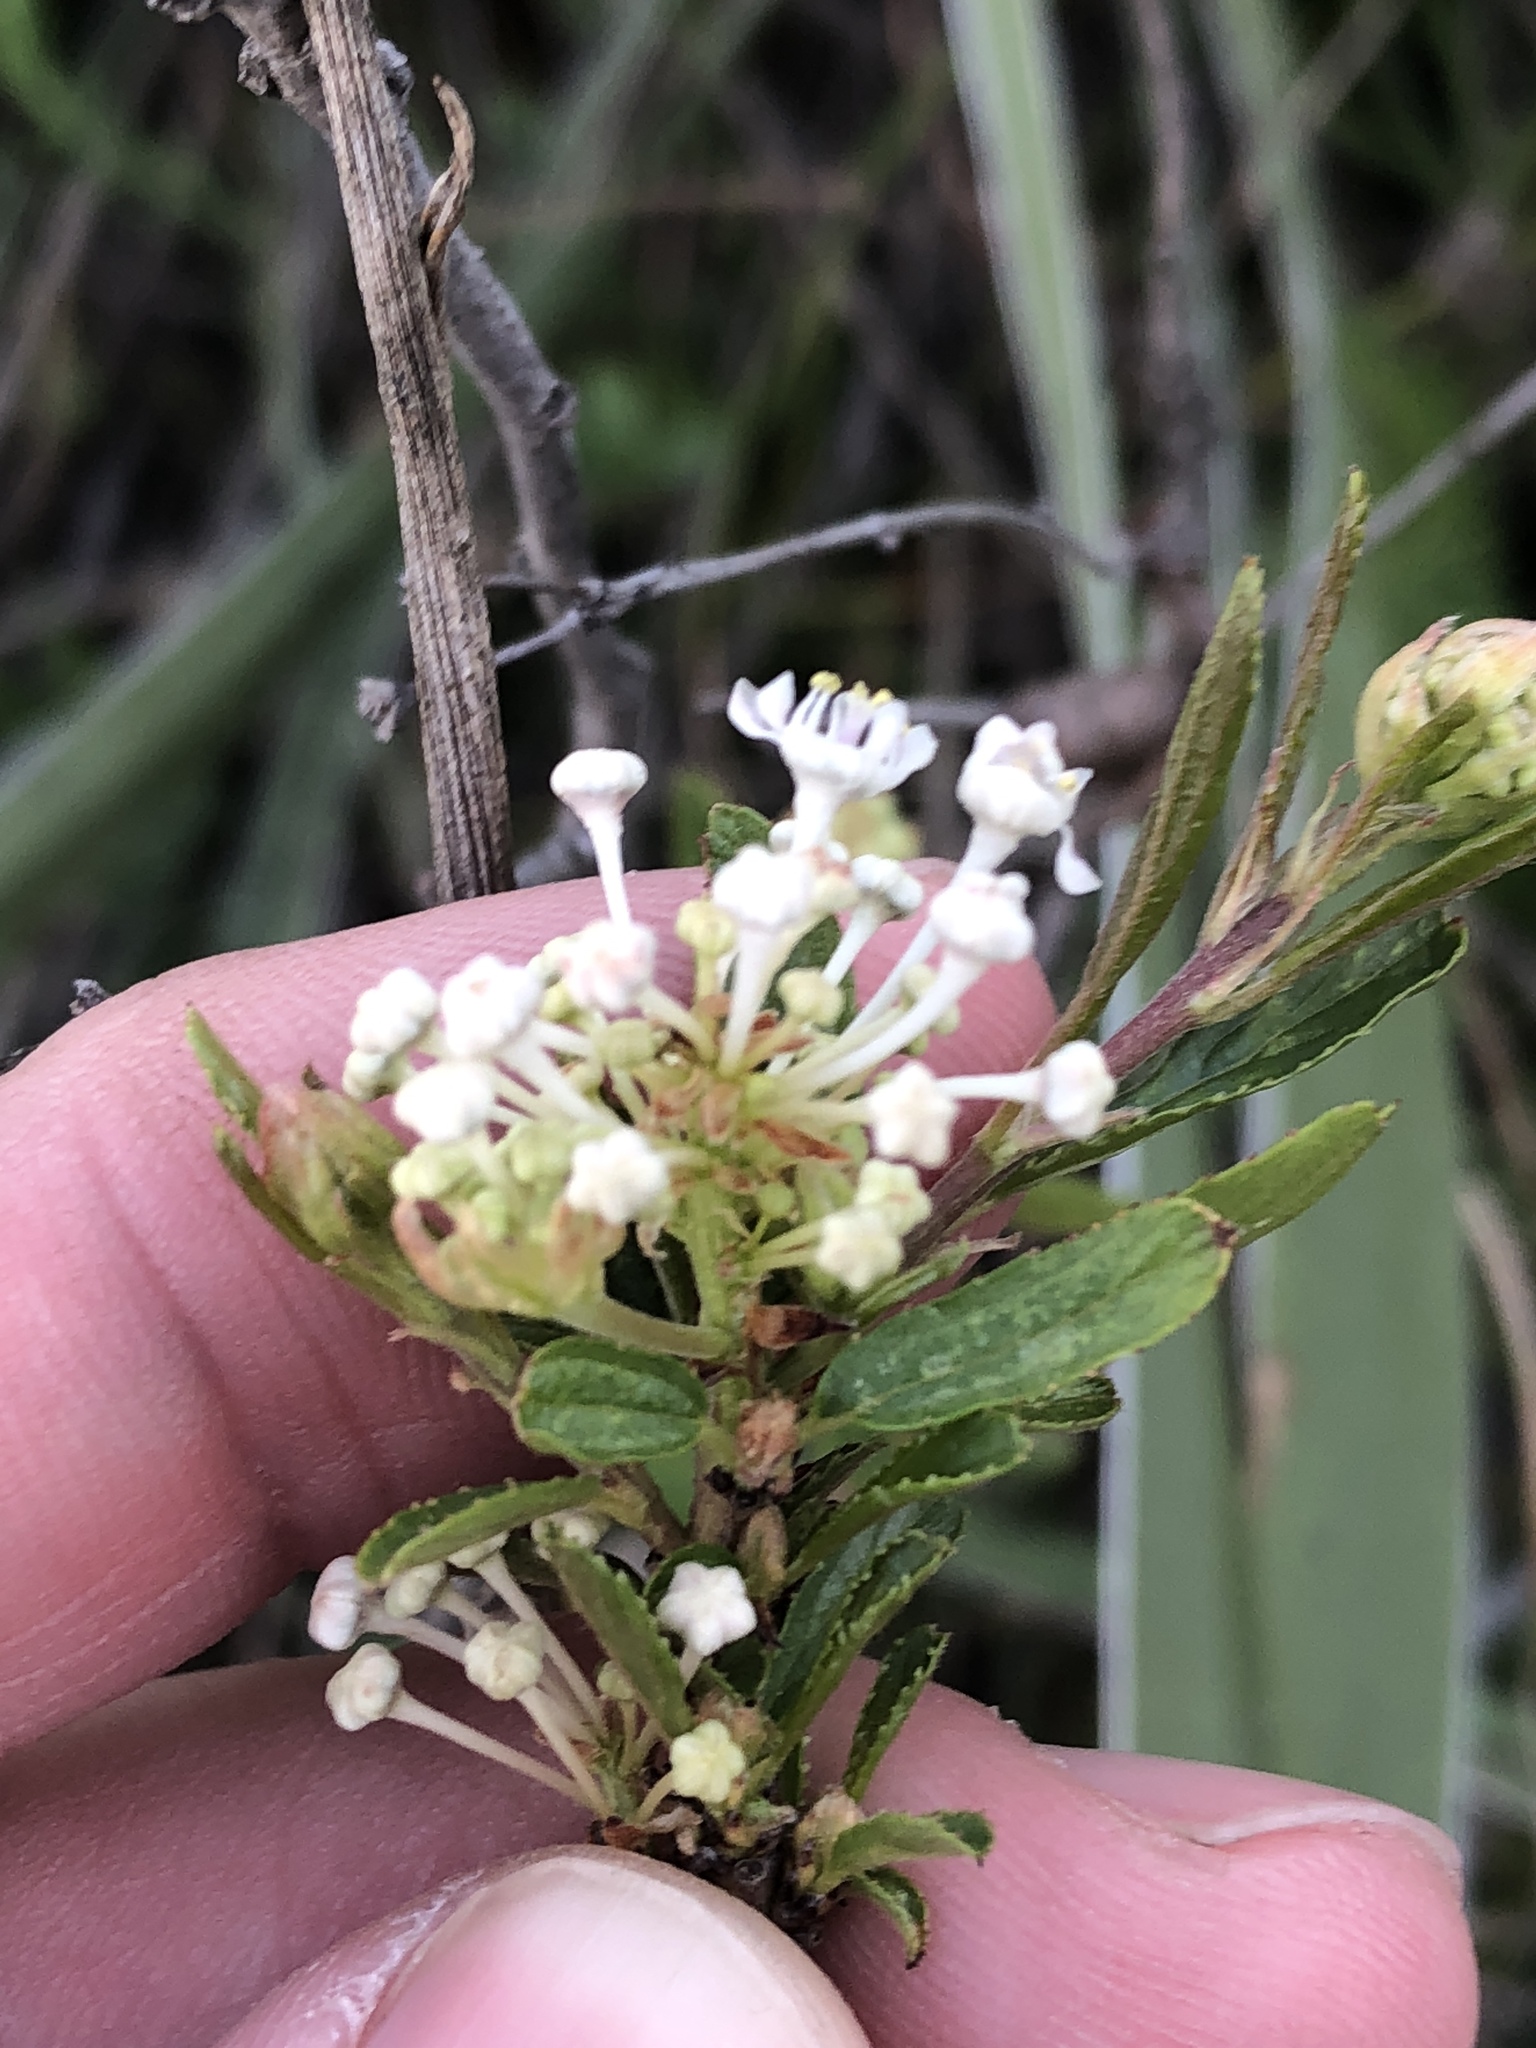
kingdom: Plantae
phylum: Tracheophyta
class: Magnoliopsida
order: Rosales
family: Rhamnaceae
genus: Ceanothus
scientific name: Ceanothus herbaceus
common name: Inland ceanothus
